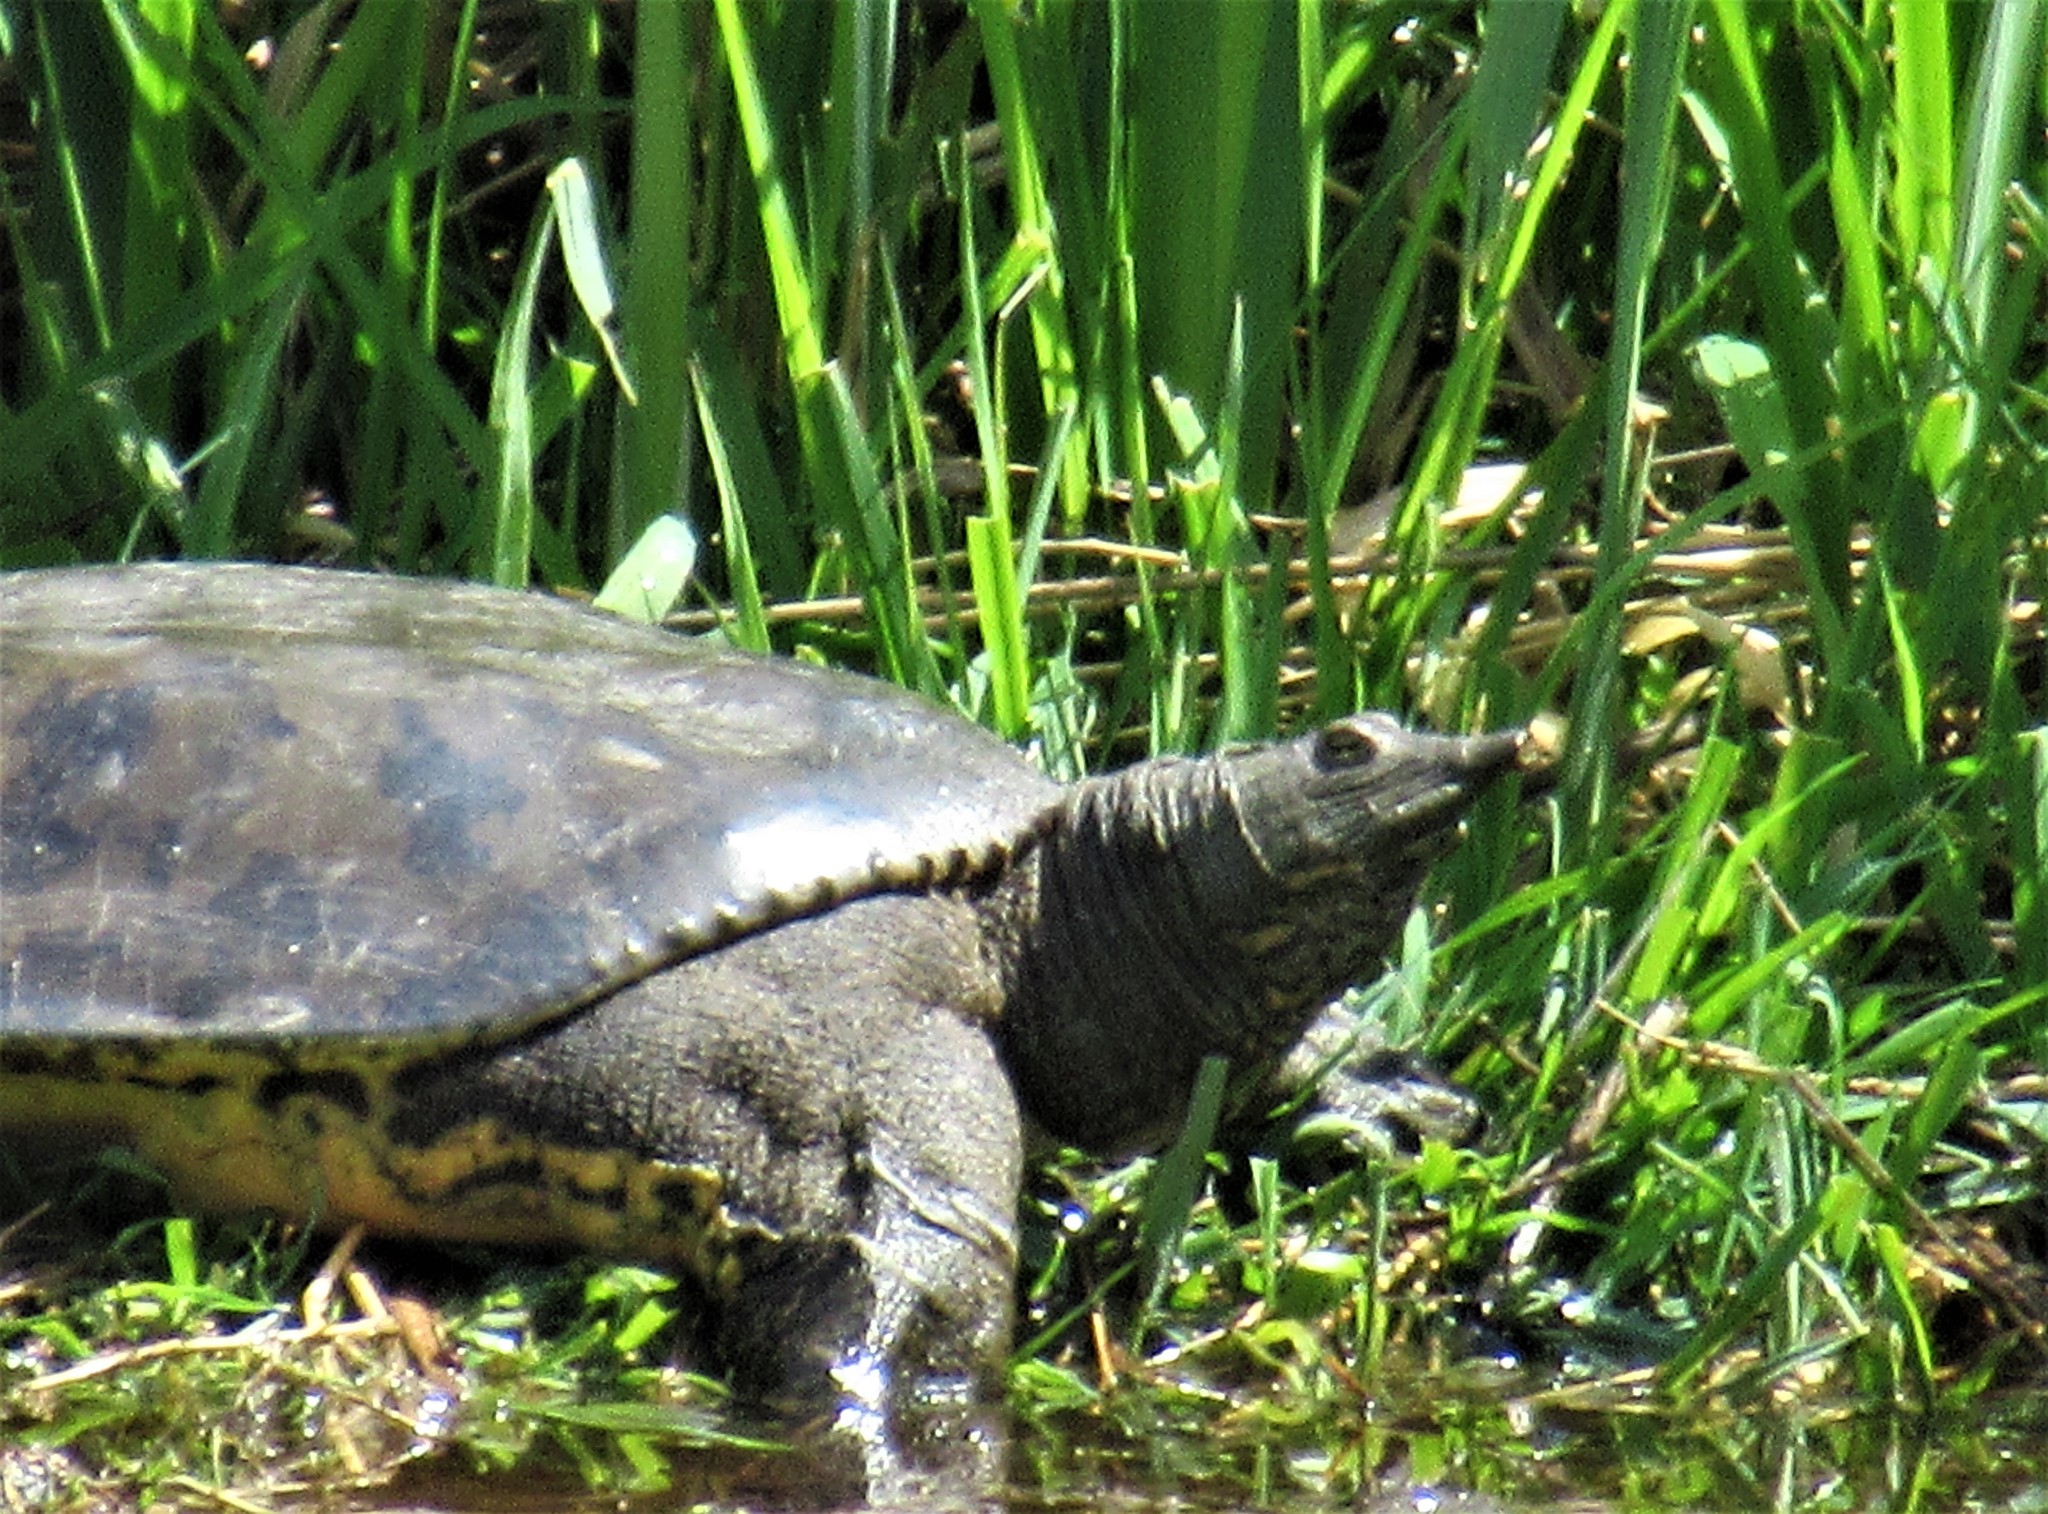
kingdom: Animalia
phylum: Chordata
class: Testudines
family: Trionychidae
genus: Apalone
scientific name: Apalone spinifera
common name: Spiny softshell turtle
